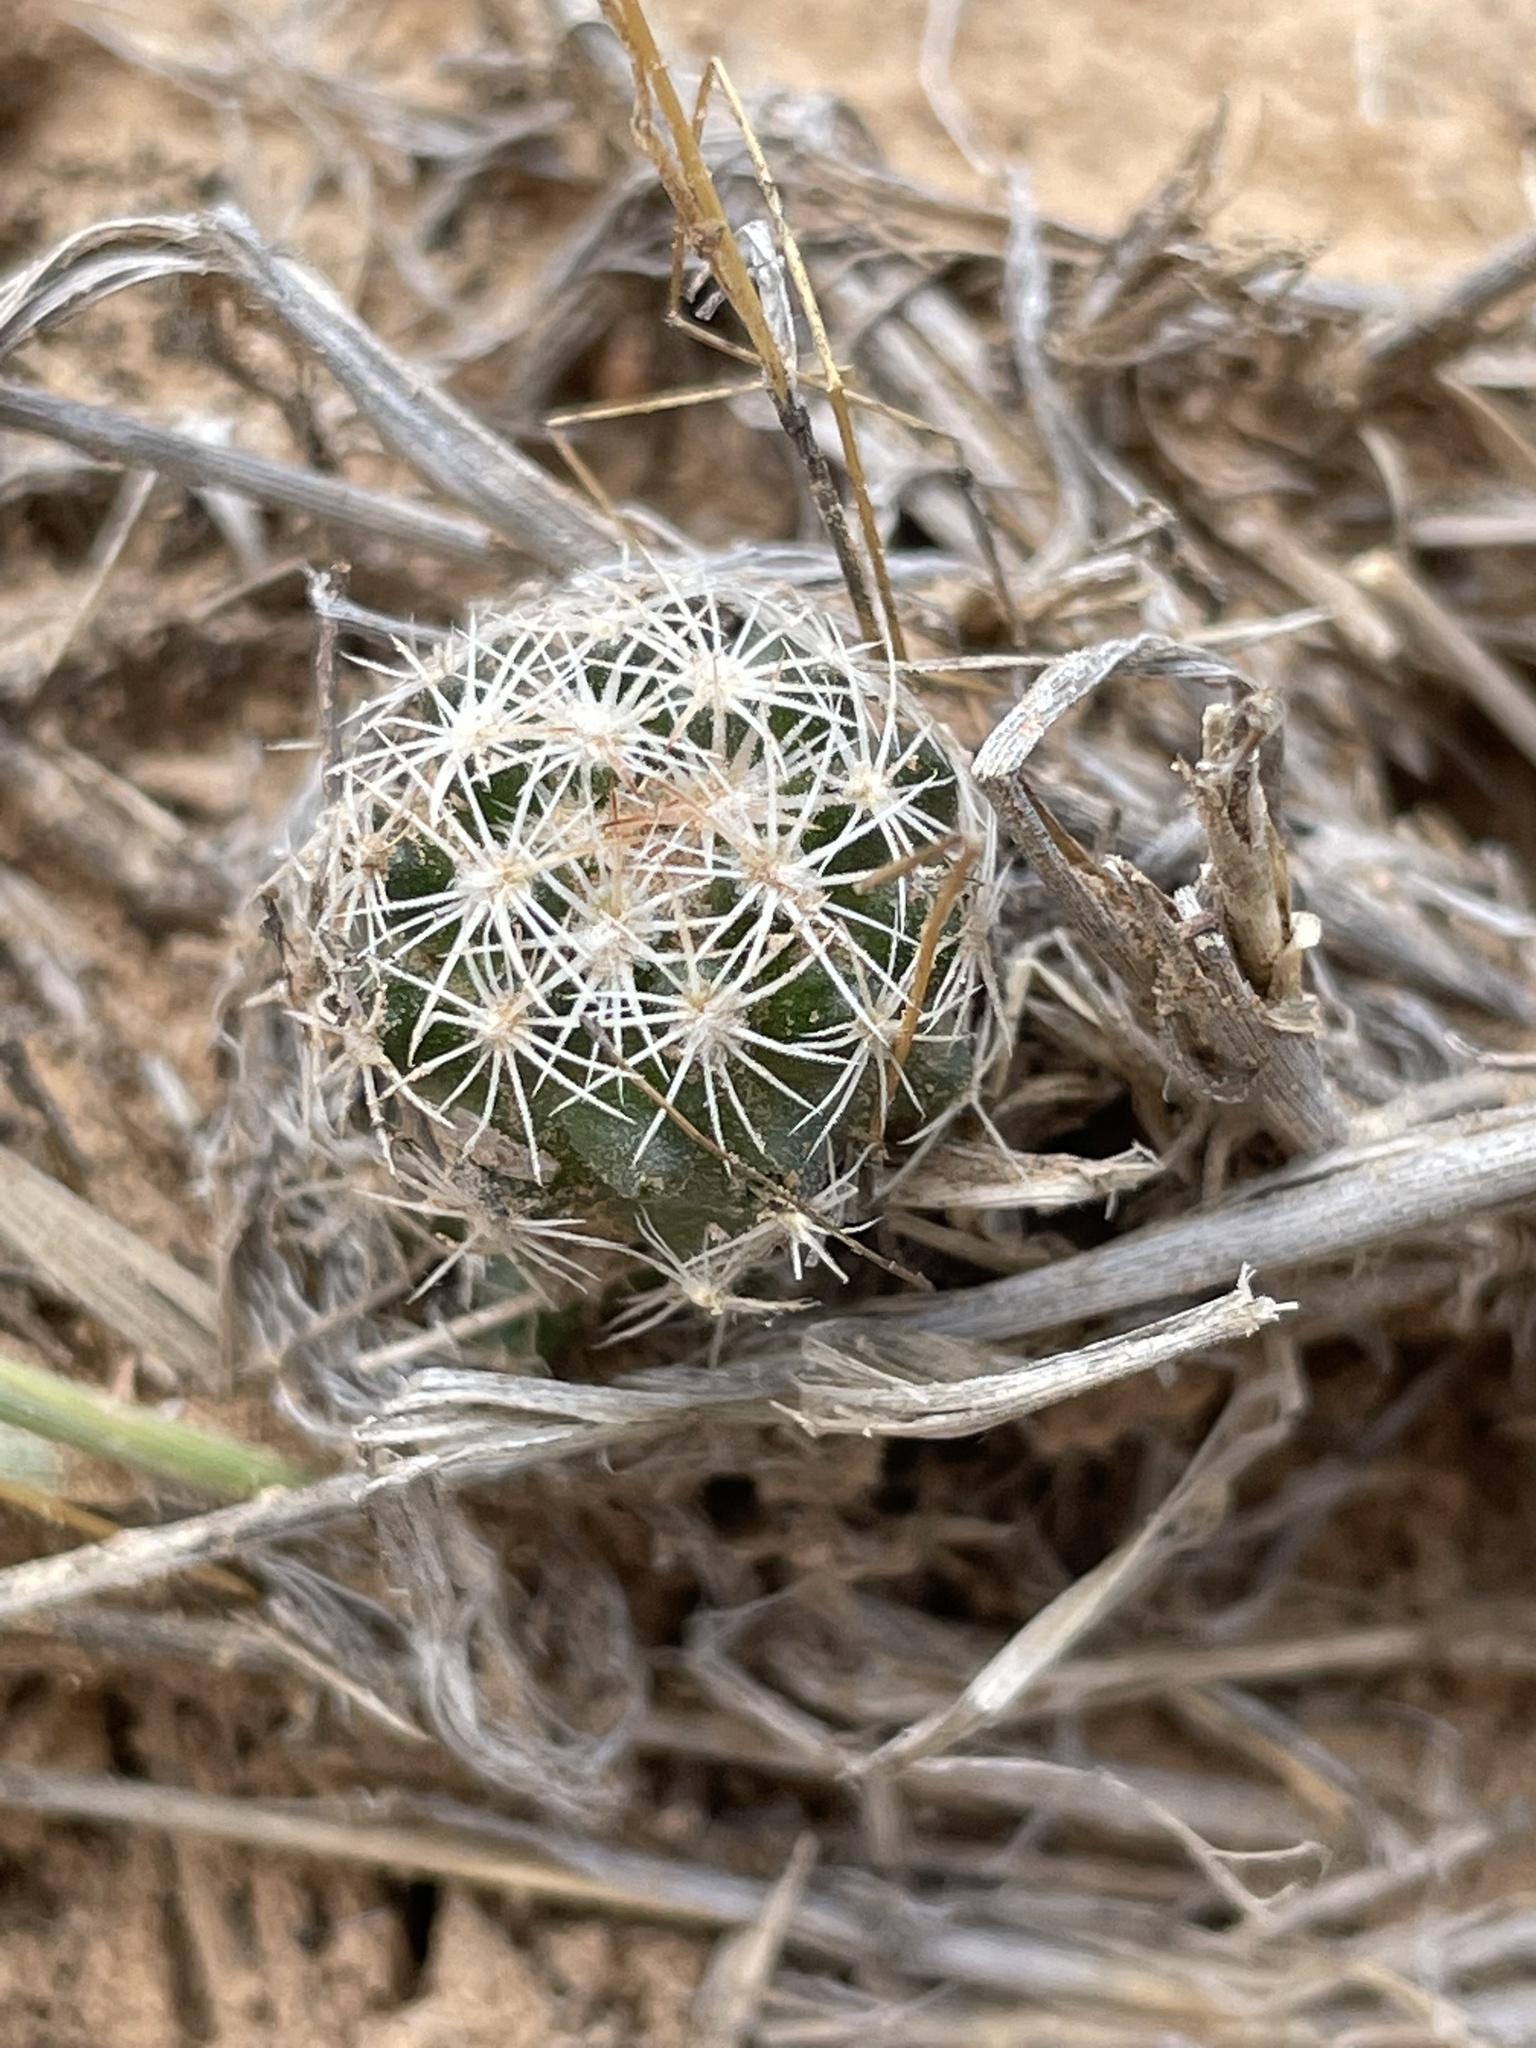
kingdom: Plantae
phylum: Tracheophyta
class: Magnoliopsida
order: Caryophyllales
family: Cactaceae
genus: Pelecyphora
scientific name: Pelecyphora vivipara
